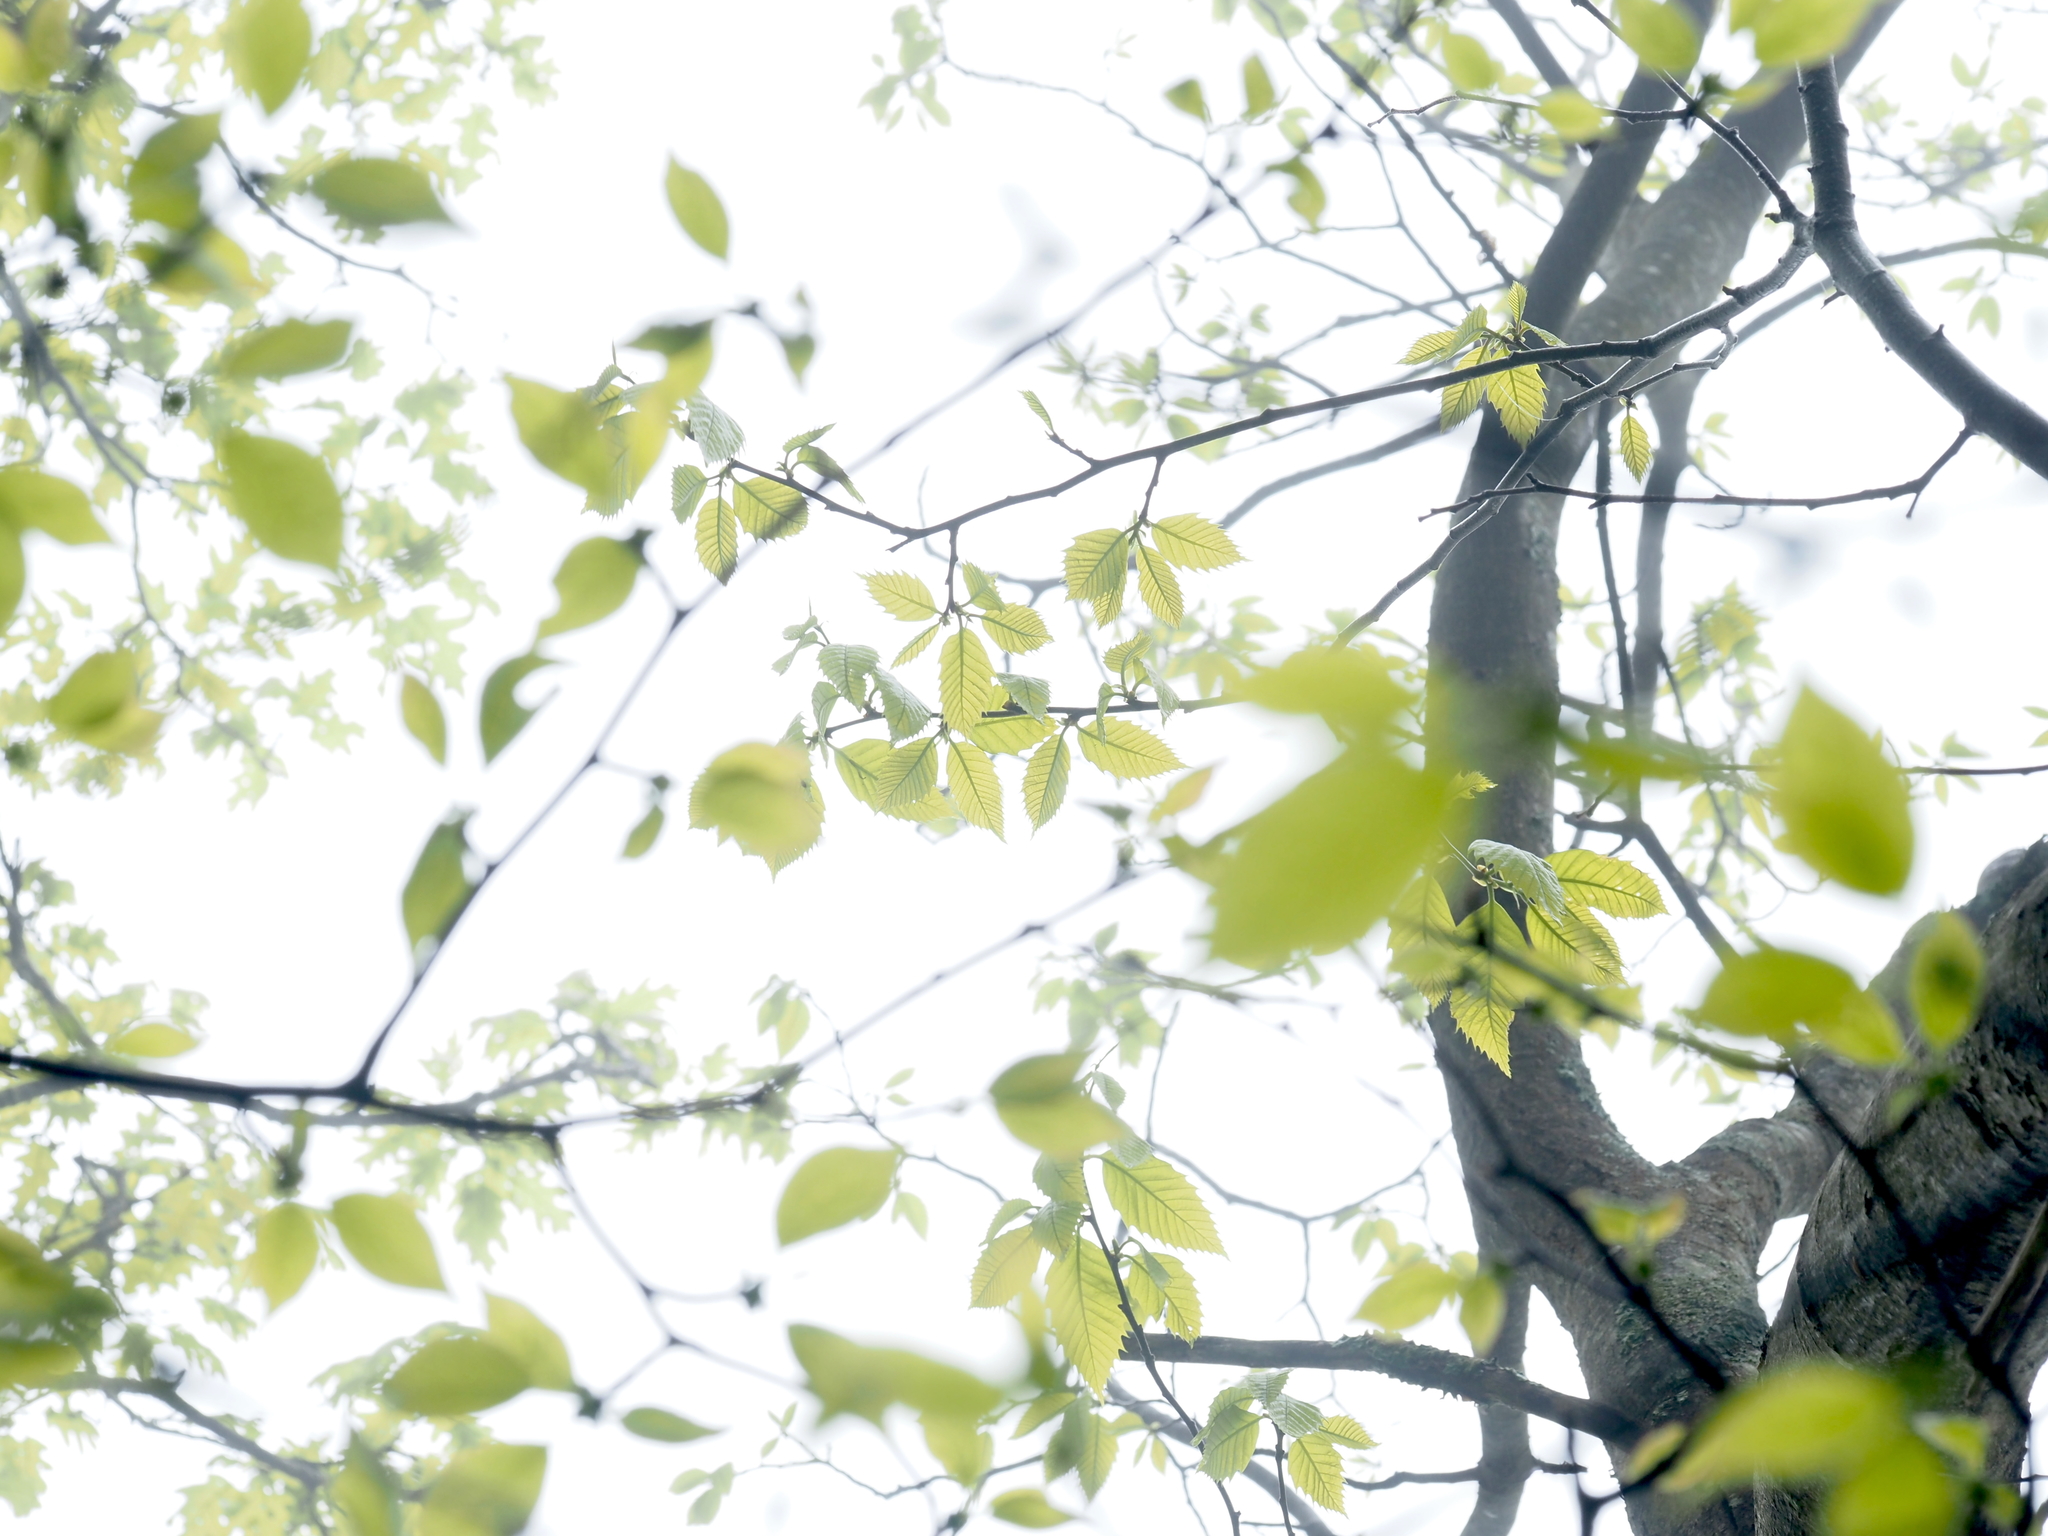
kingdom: Plantae
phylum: Tracheophyta
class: Magnoliopsida
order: Fagales
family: Fagaceae
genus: Castanea
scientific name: Castanea dentata
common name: American chestnut
